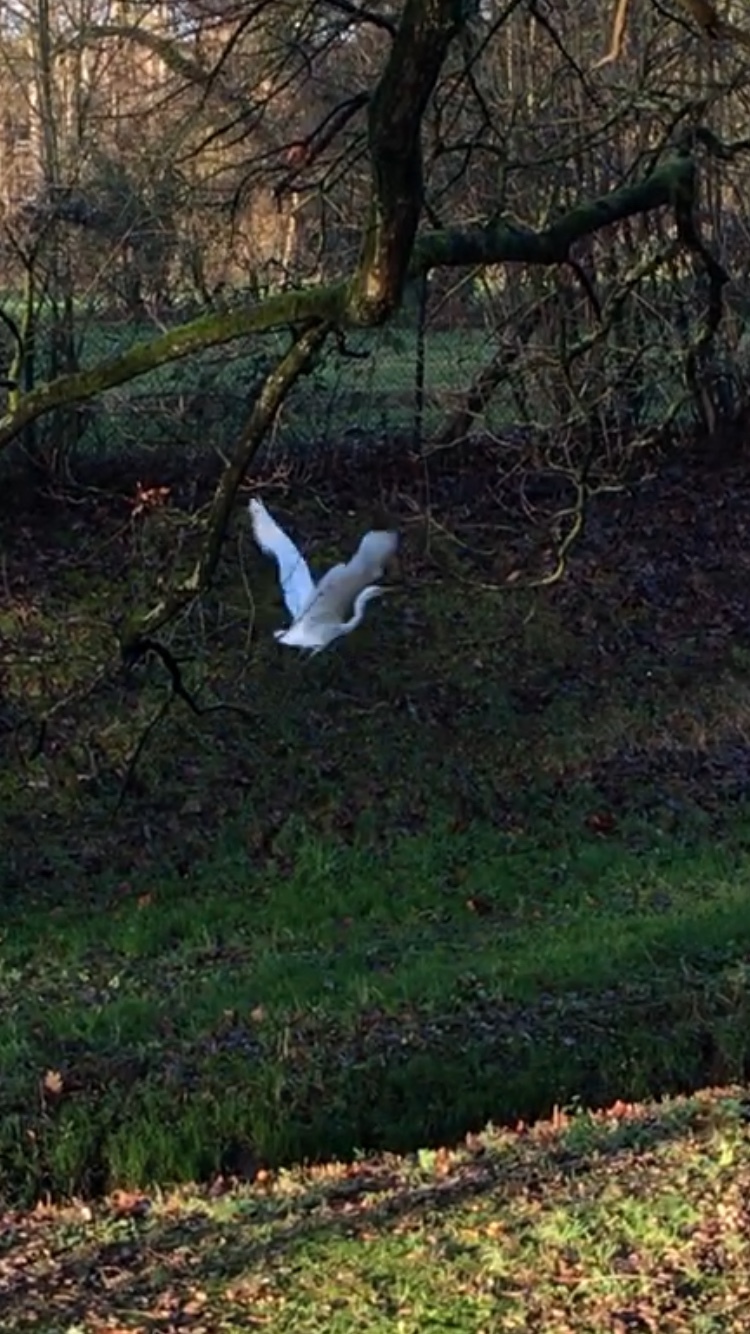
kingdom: Animalia
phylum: Chordata
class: Aves
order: Pelecaniformes
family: Ardeidae
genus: Ardea
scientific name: Ardea alba
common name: Great egret
